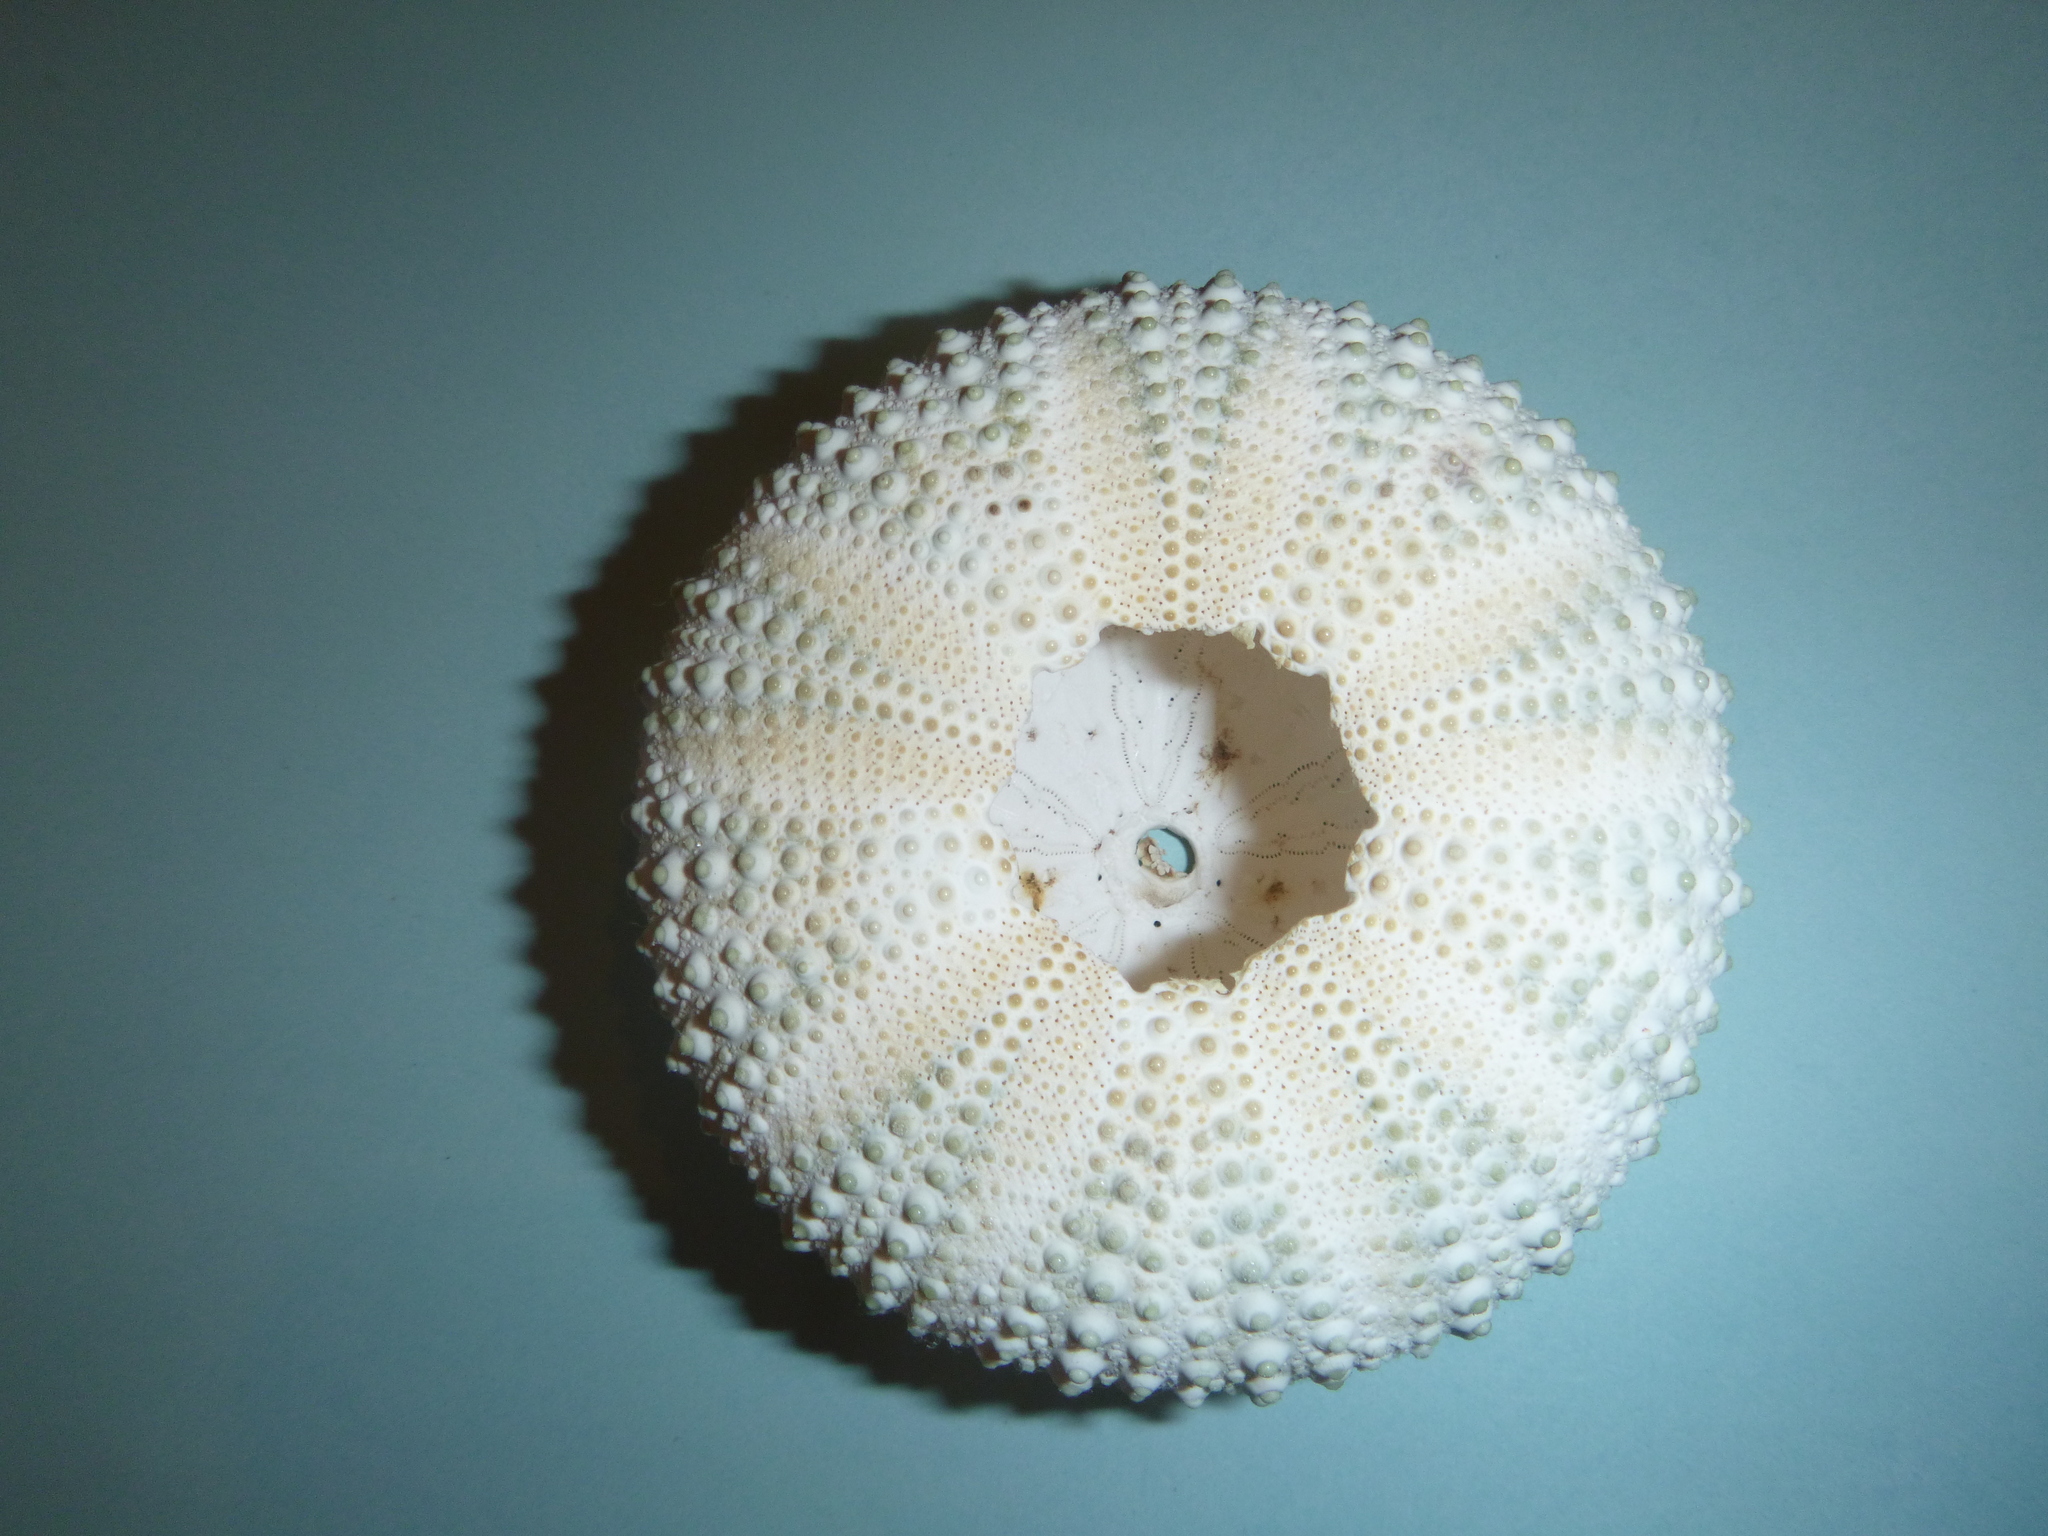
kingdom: Animalia
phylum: Echinodermata
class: Echinoidea
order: Camarodonta
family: Echinometridae
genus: Heliocidaris
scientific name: Heliocidaris tuberculata
